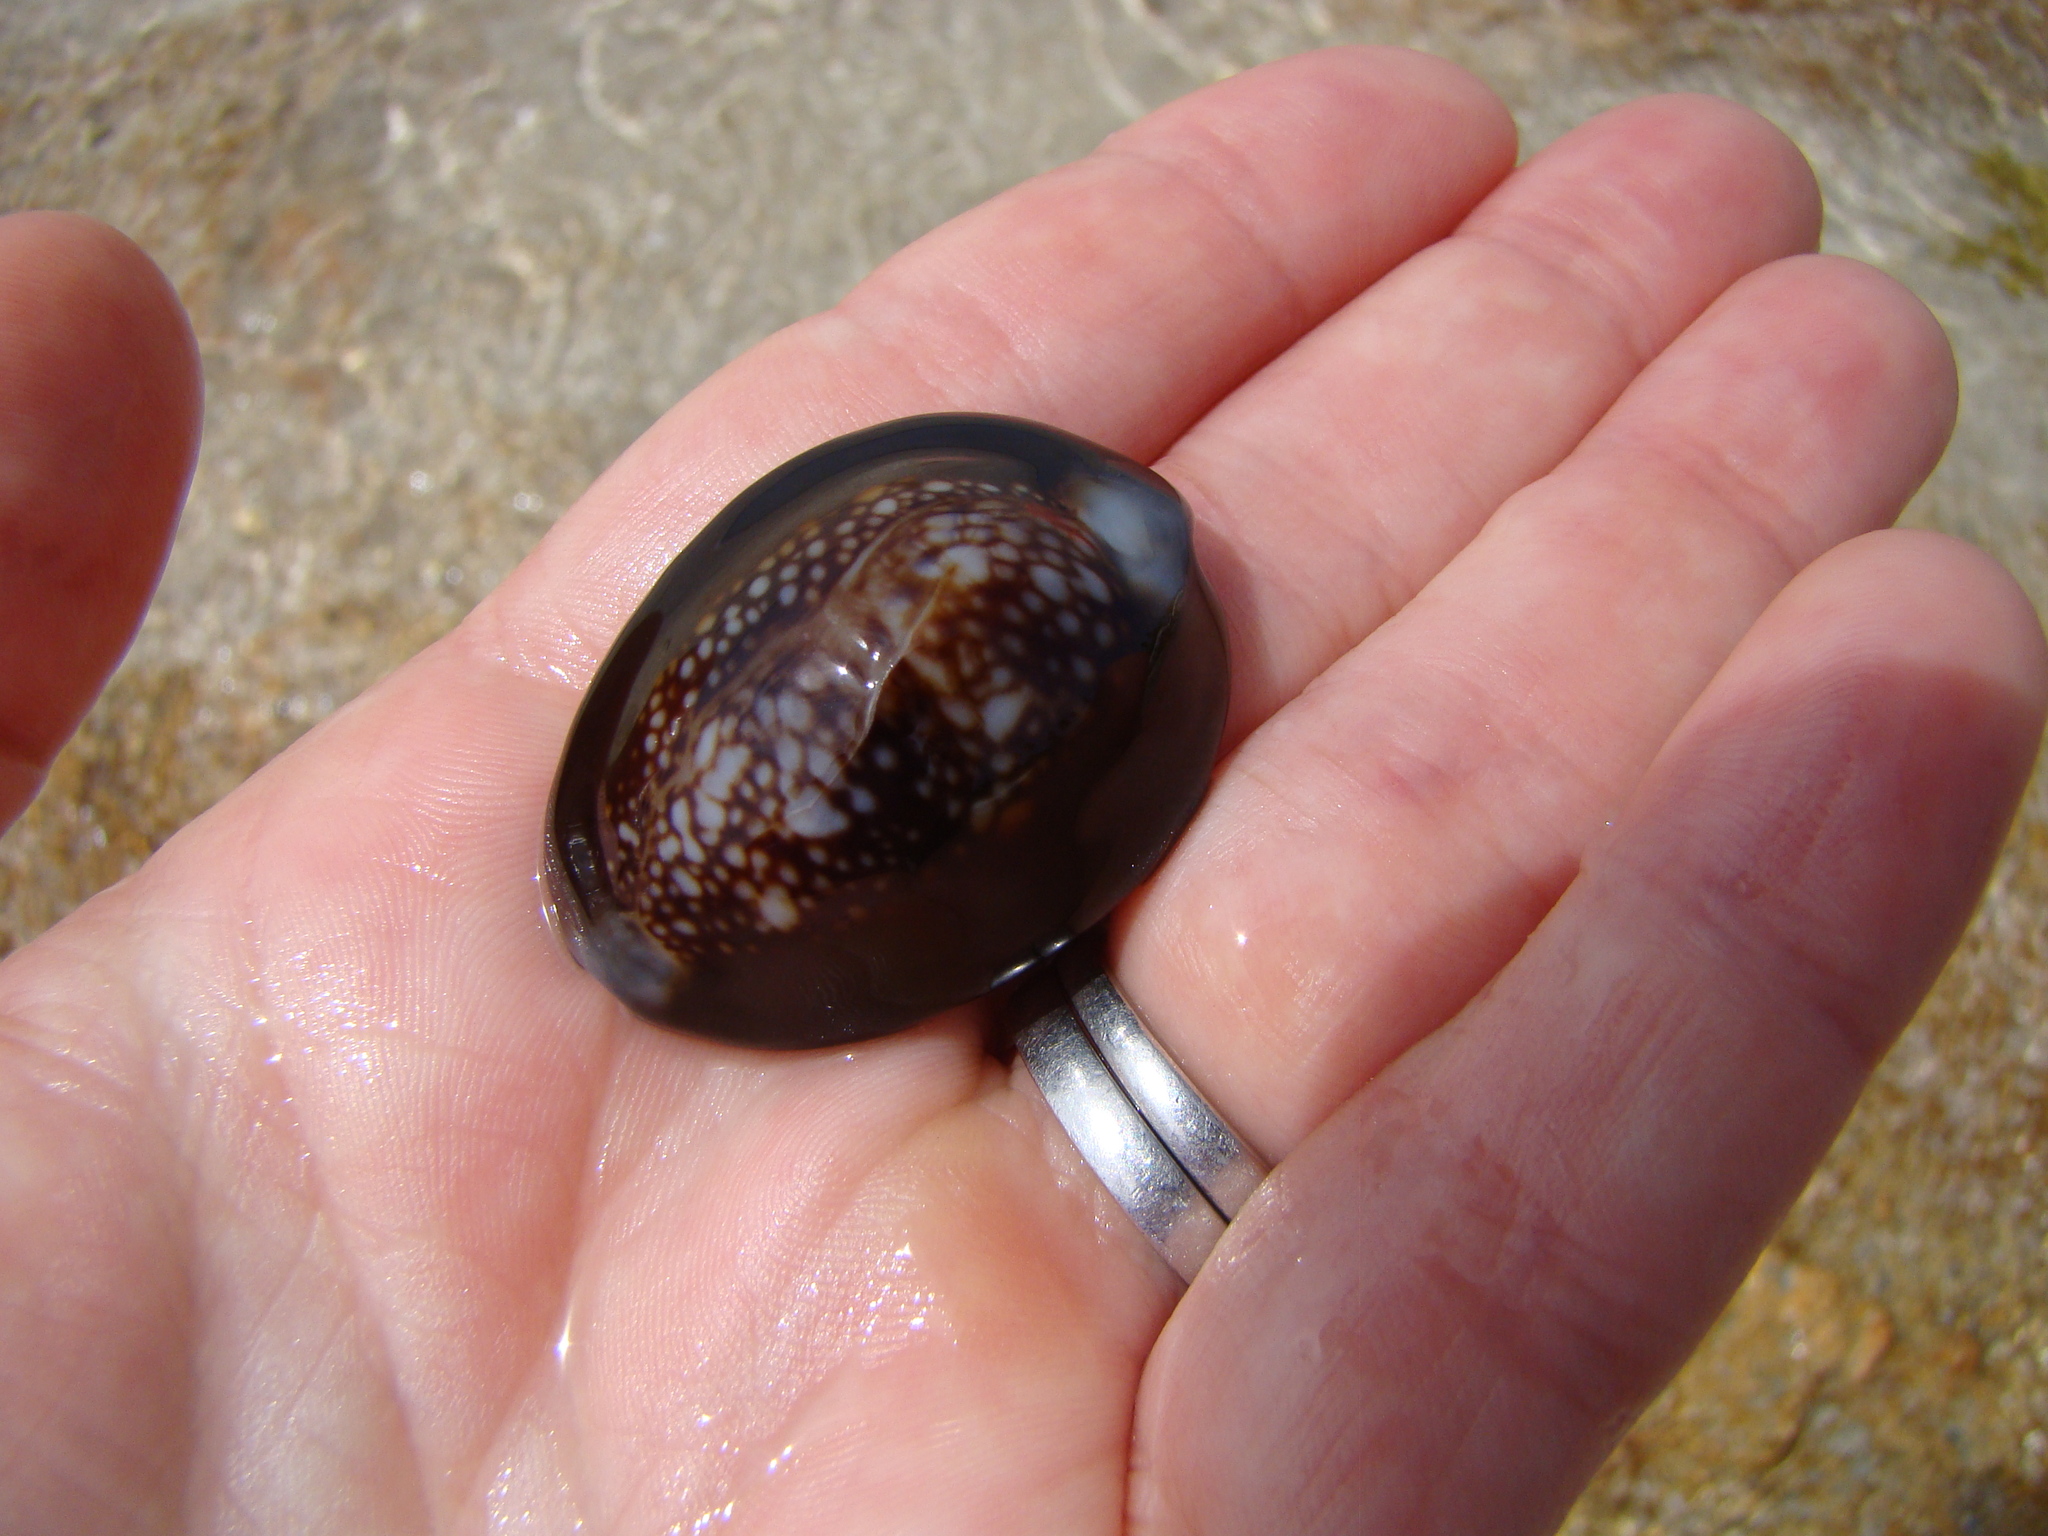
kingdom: Animalia
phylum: Mollusca
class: Gastropoda
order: Littorinimorpha
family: Cypraeidae
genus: Monetaria
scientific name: Monetaria caputserpentis
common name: Serpent's head cowrie
